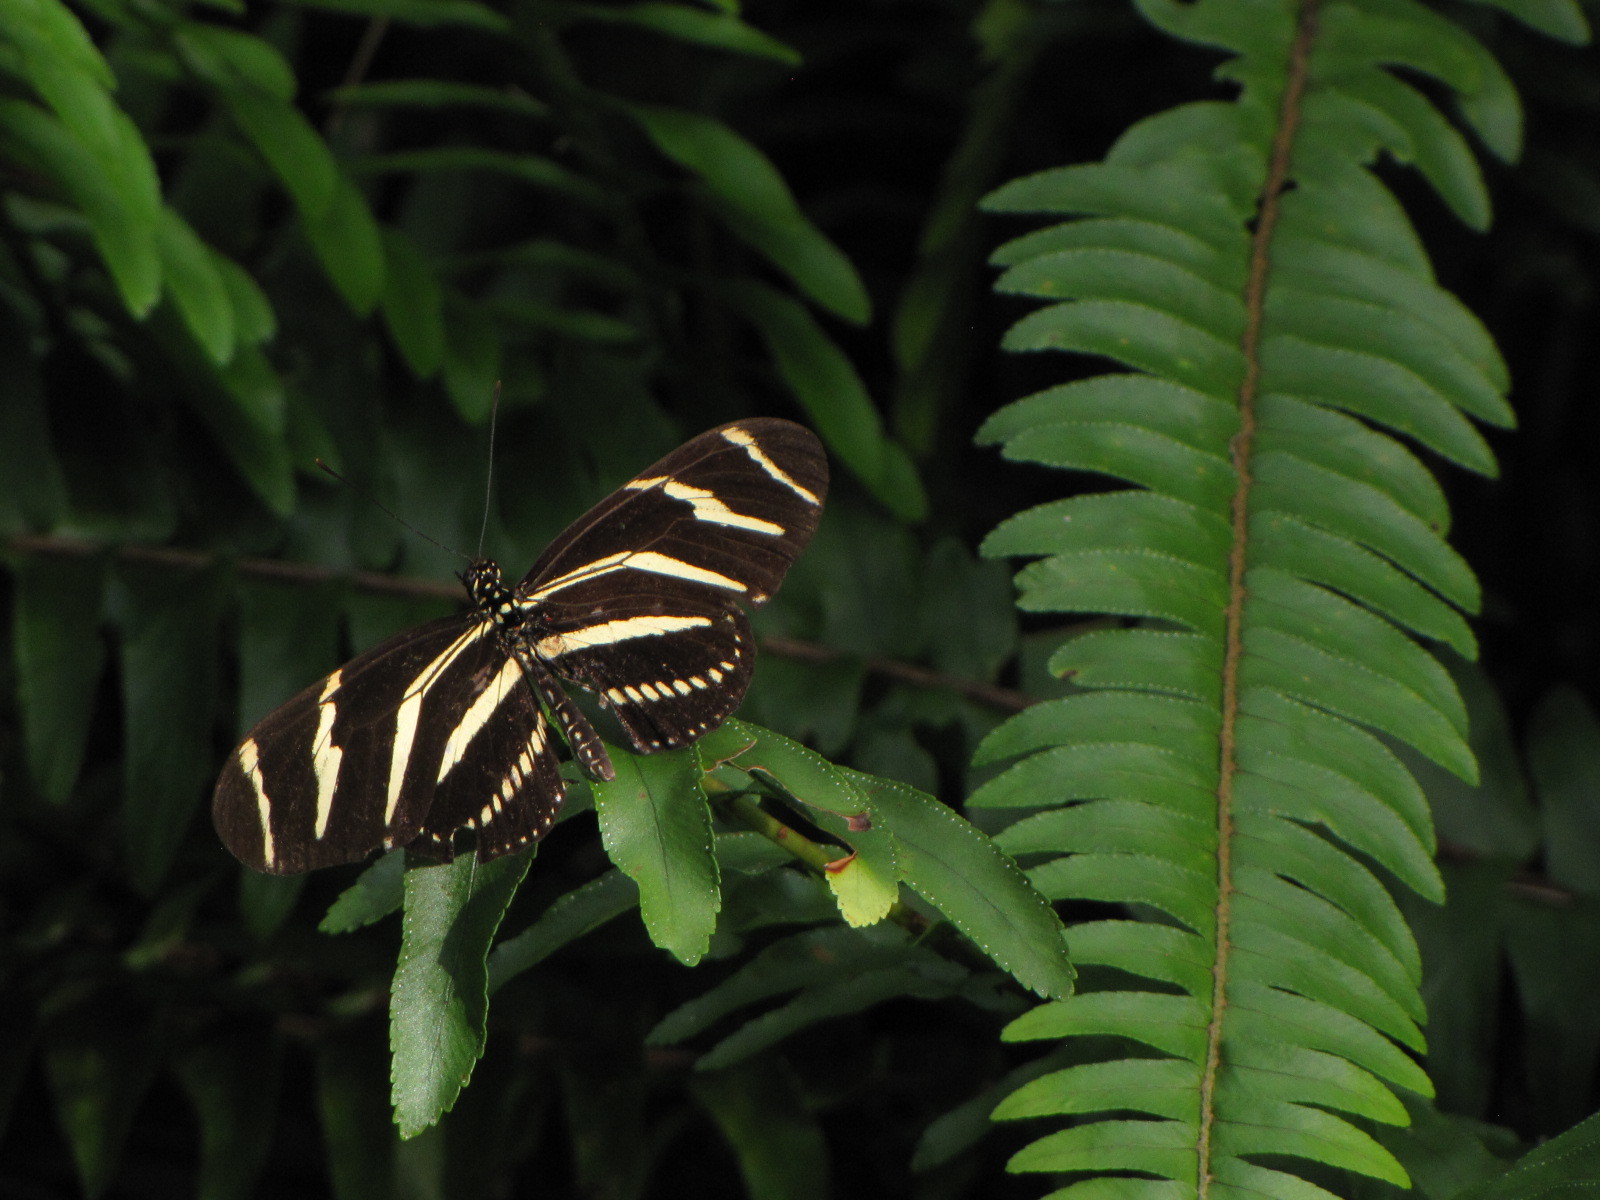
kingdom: Animalia
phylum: Arthropoda
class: Insecta
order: Lepidoptera
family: Nymphalidae
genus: Heliconius
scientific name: Heliconius charithonia
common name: Zebra long wing
